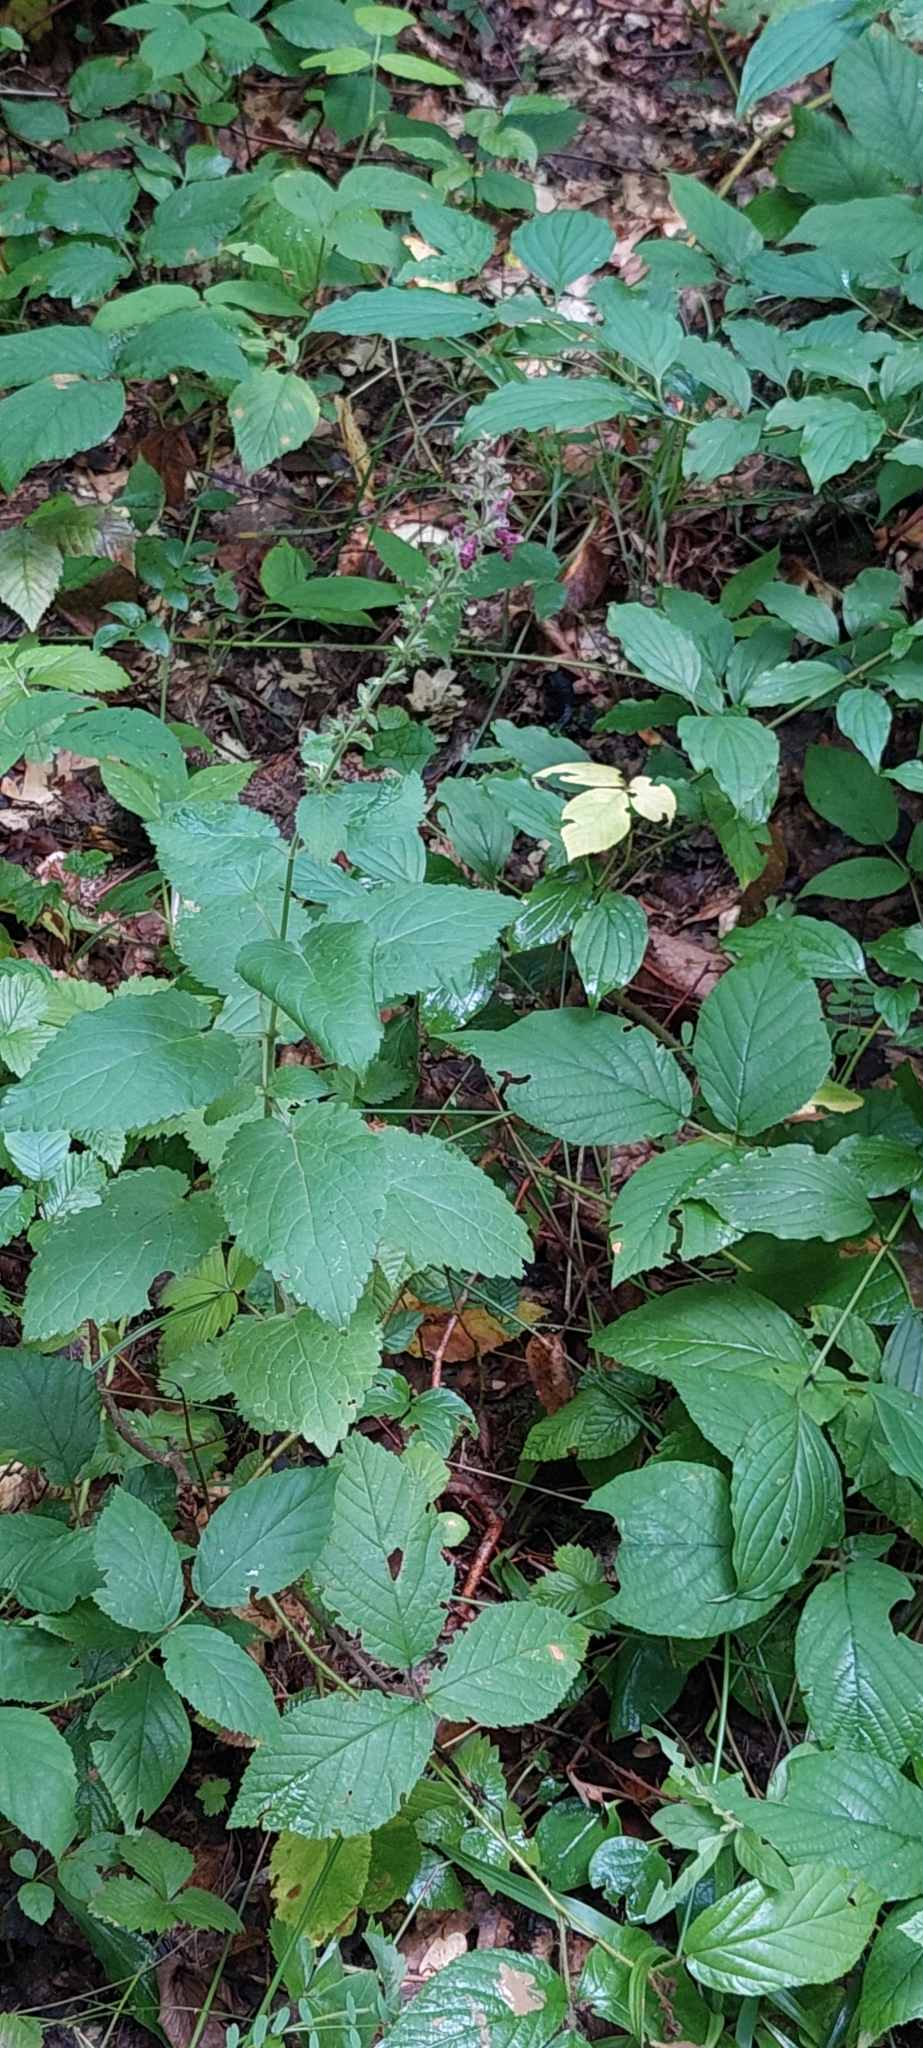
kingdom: Plantae
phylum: Tracheophyta
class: Magnoliopsida
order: Lamiales
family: Lamiaceae
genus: Stachys
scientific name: Stachys sylvatica
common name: Hedge woundwort
